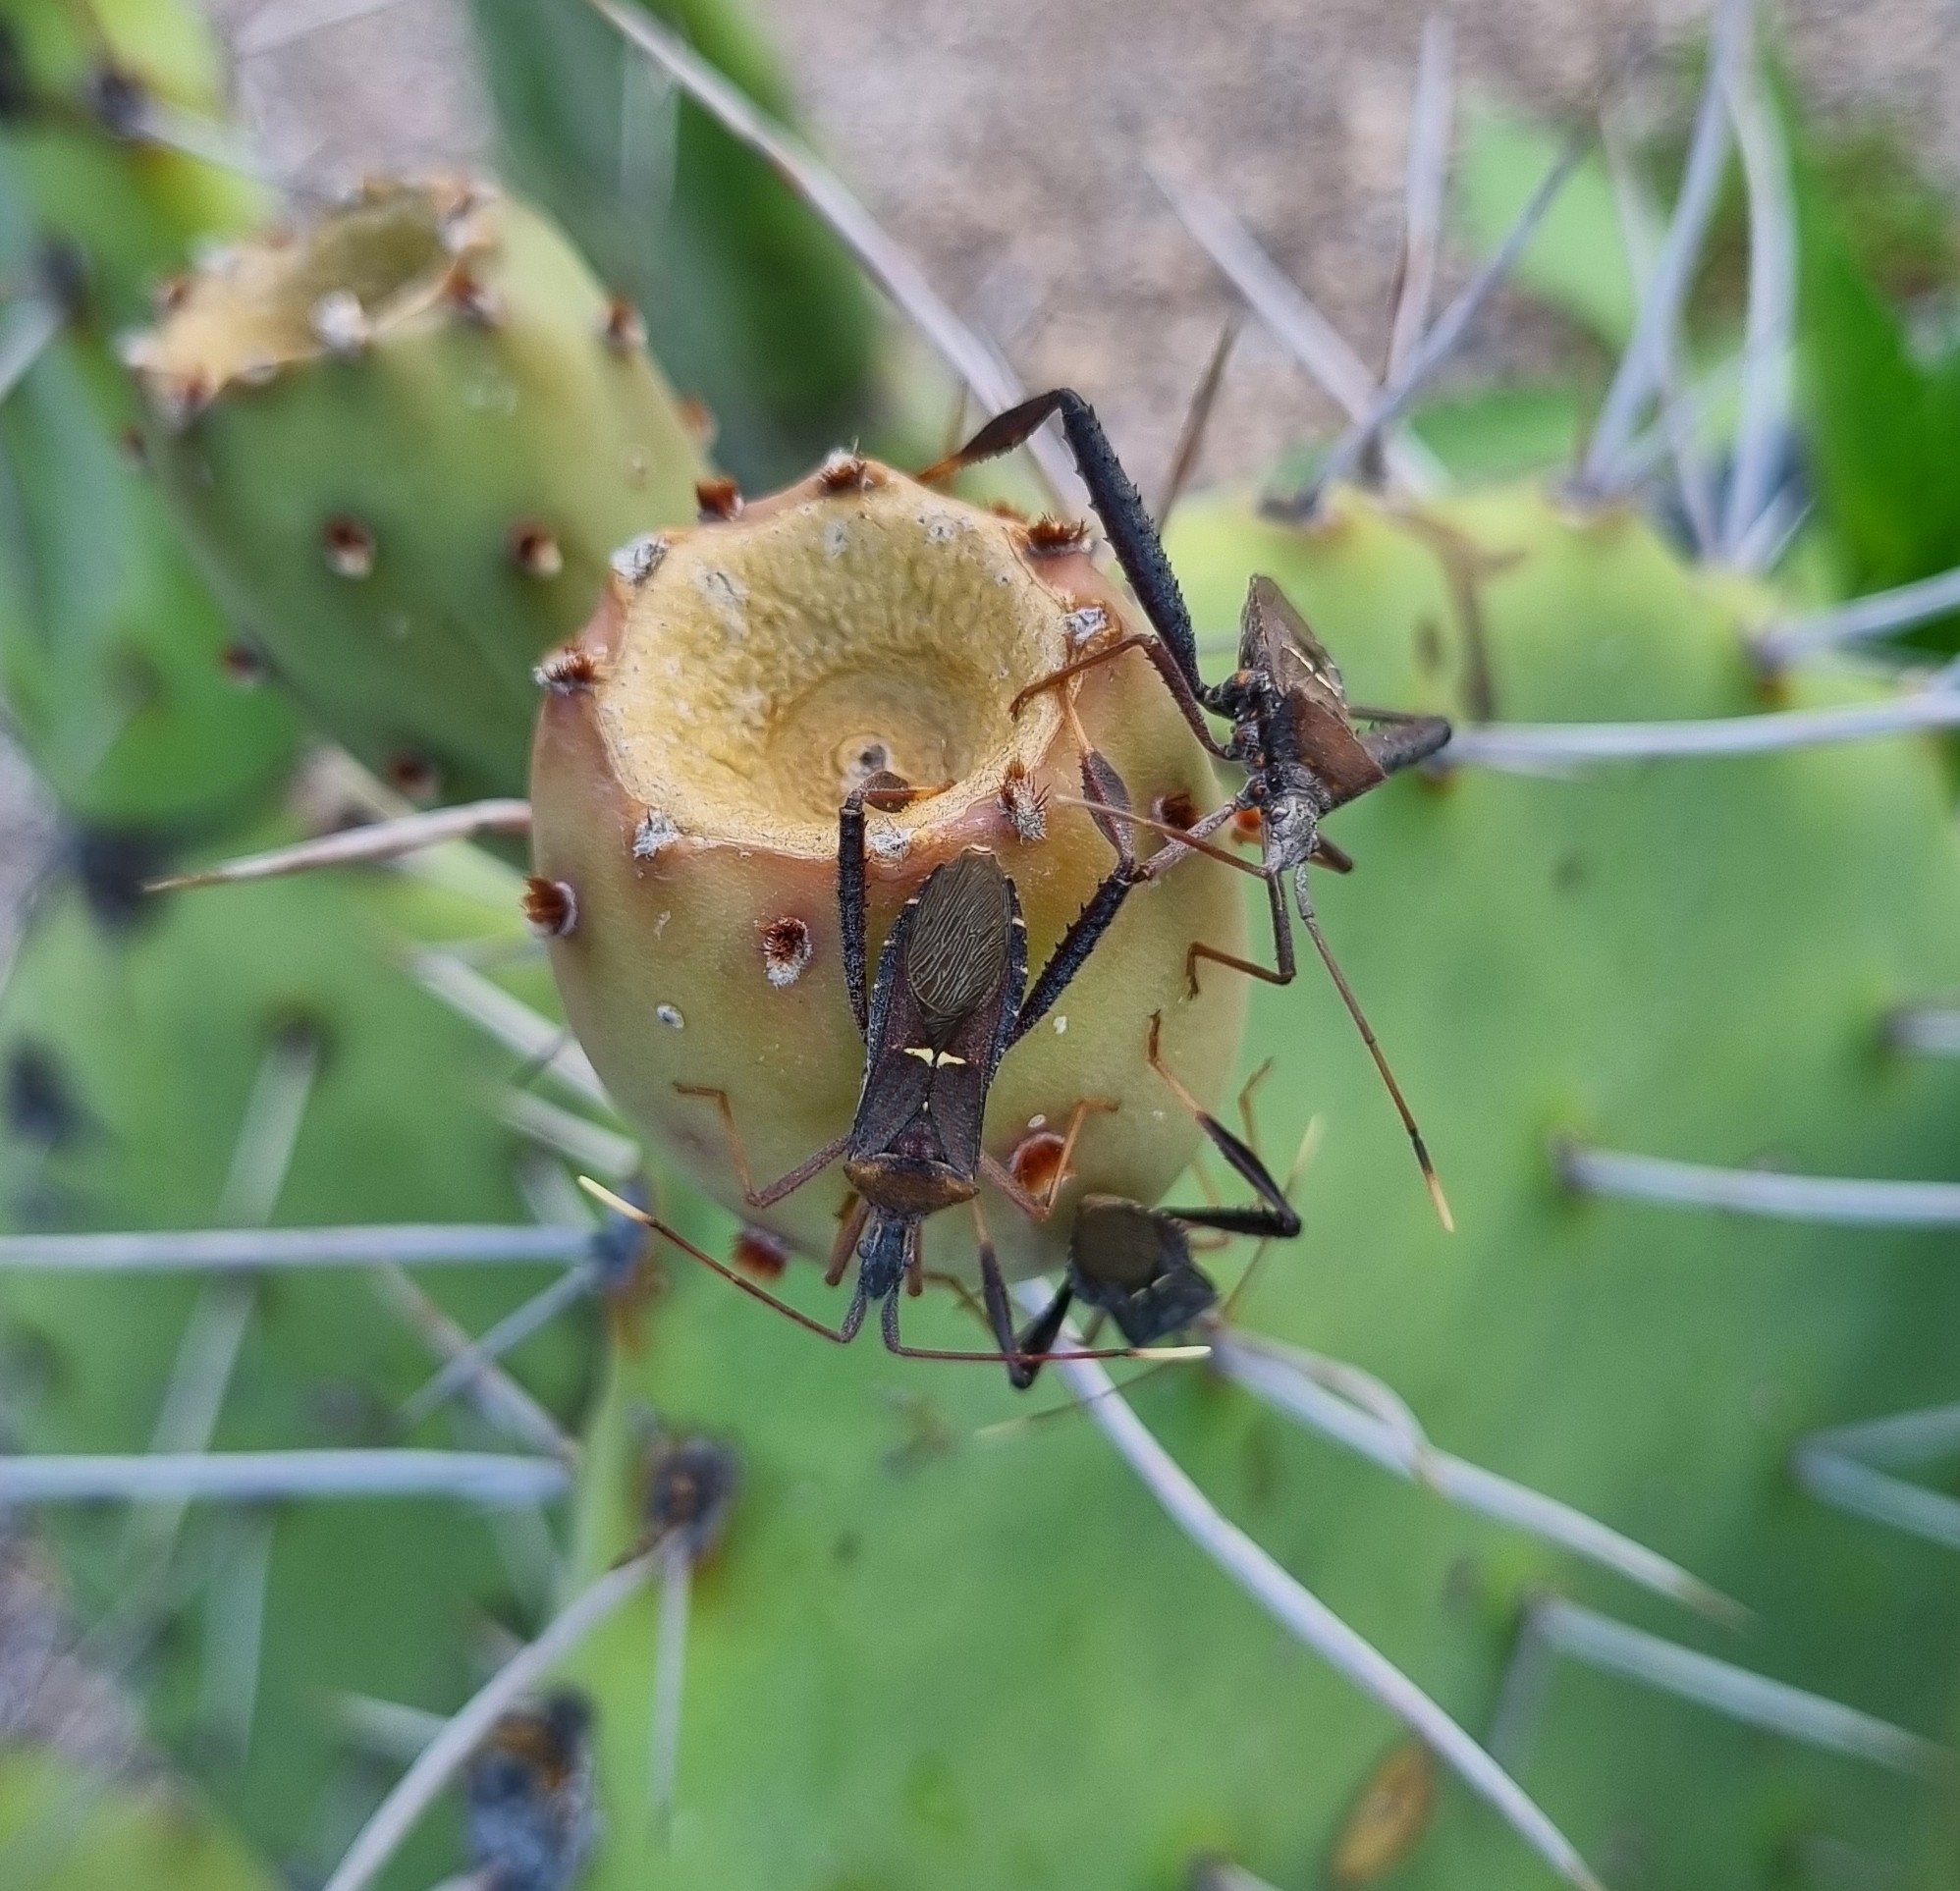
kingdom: Animalia
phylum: Arthropoda
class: Insecta
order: Hemiptera
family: Coreidae
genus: Leptoglossus
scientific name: Leptoglossus crassicornis
